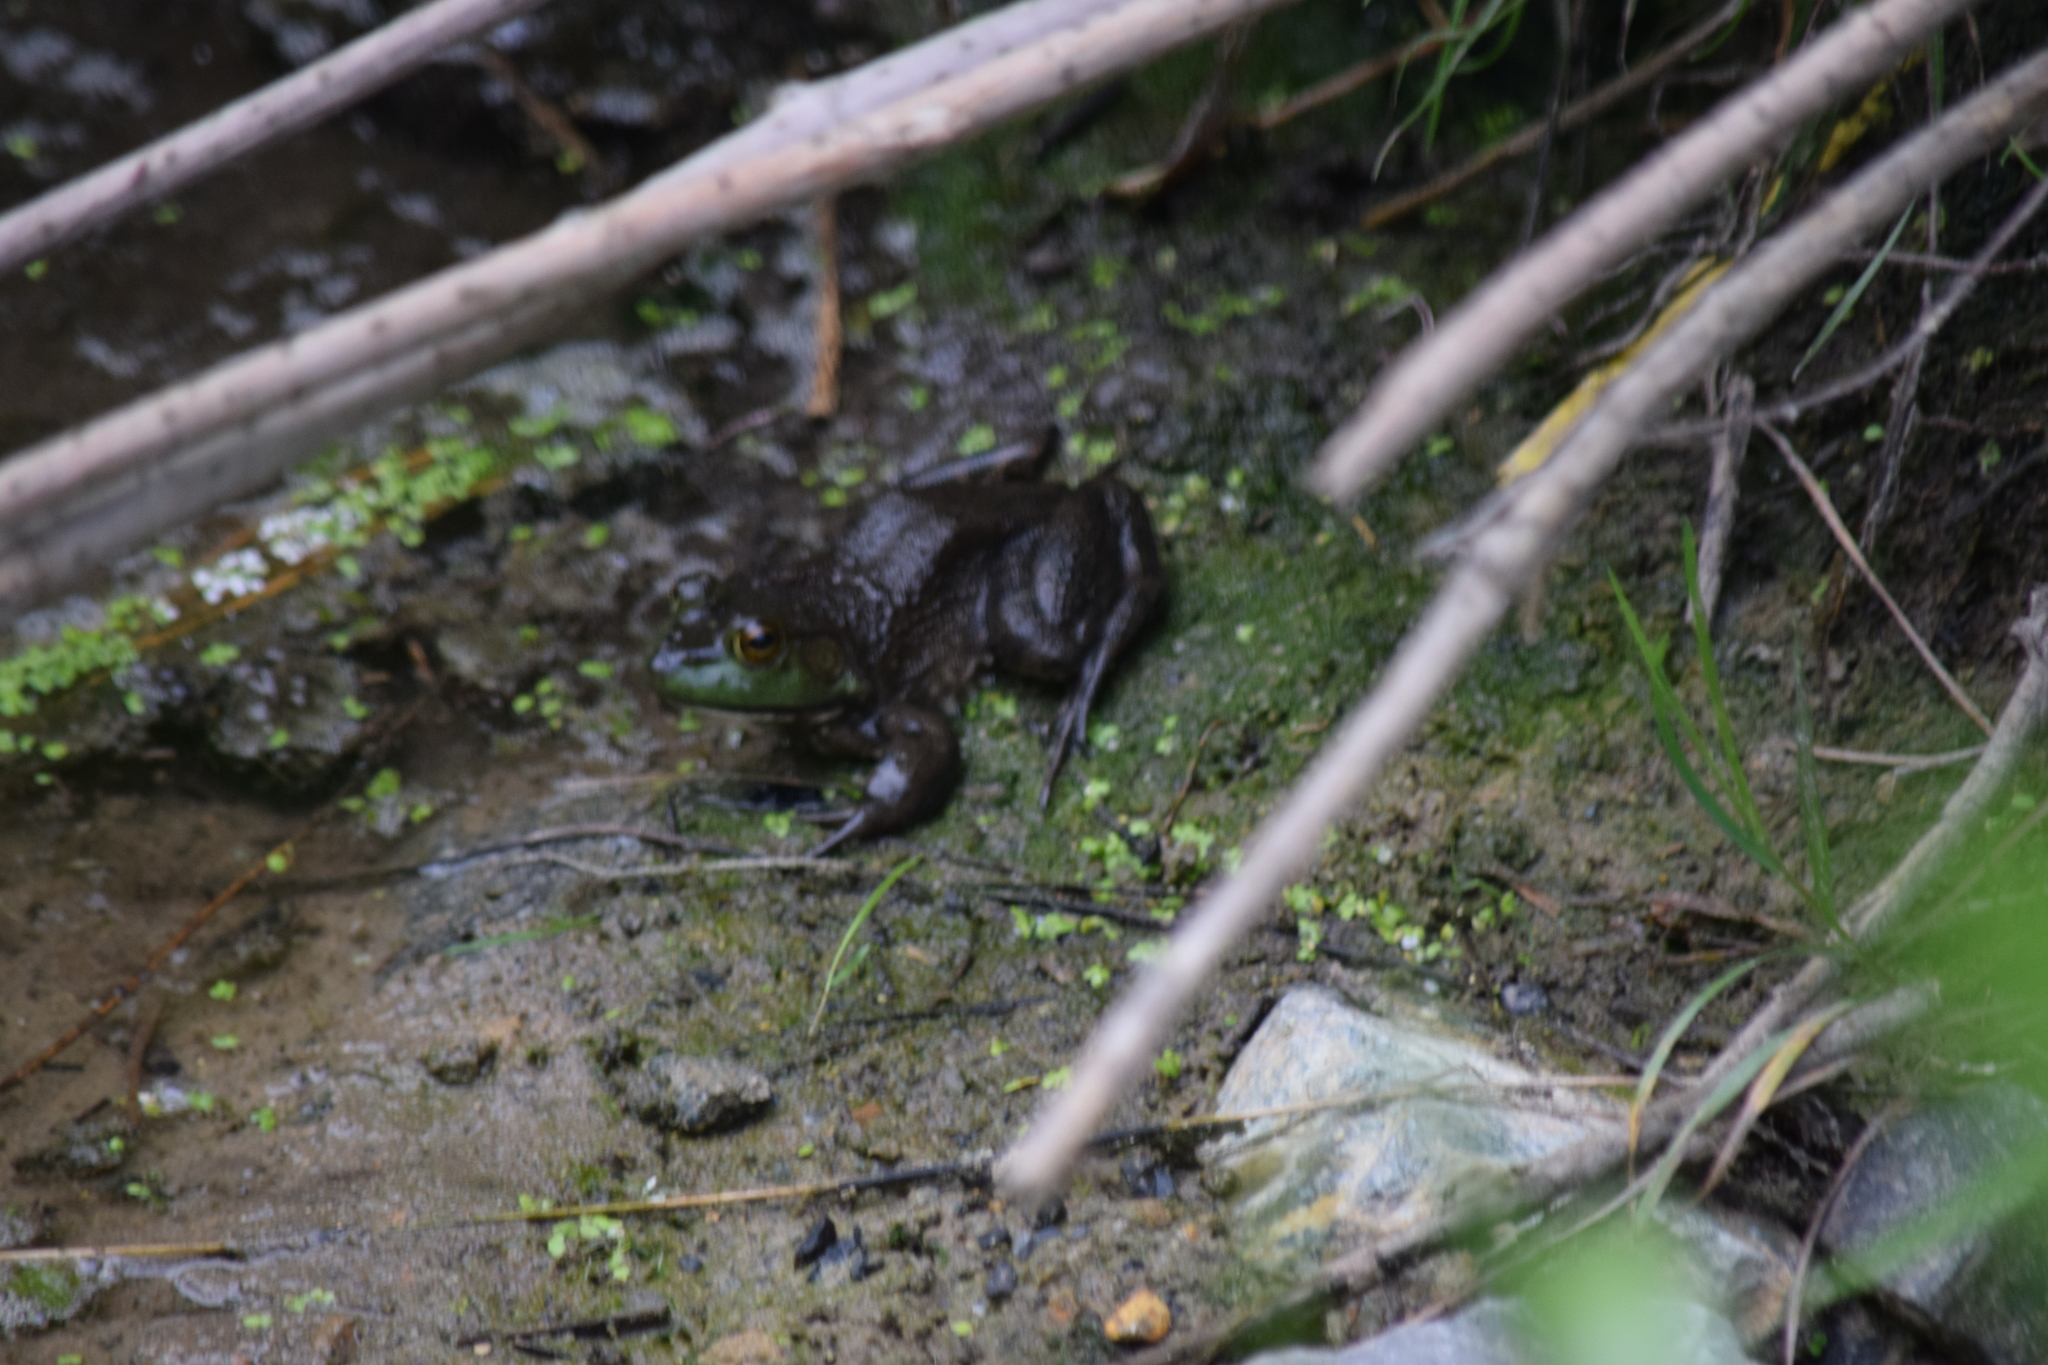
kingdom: Animalia
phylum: Chordata
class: Amphibia
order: Anura
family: Ranidae
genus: Lithobates
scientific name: Lithobates catesbeianus
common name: American bullfrog
